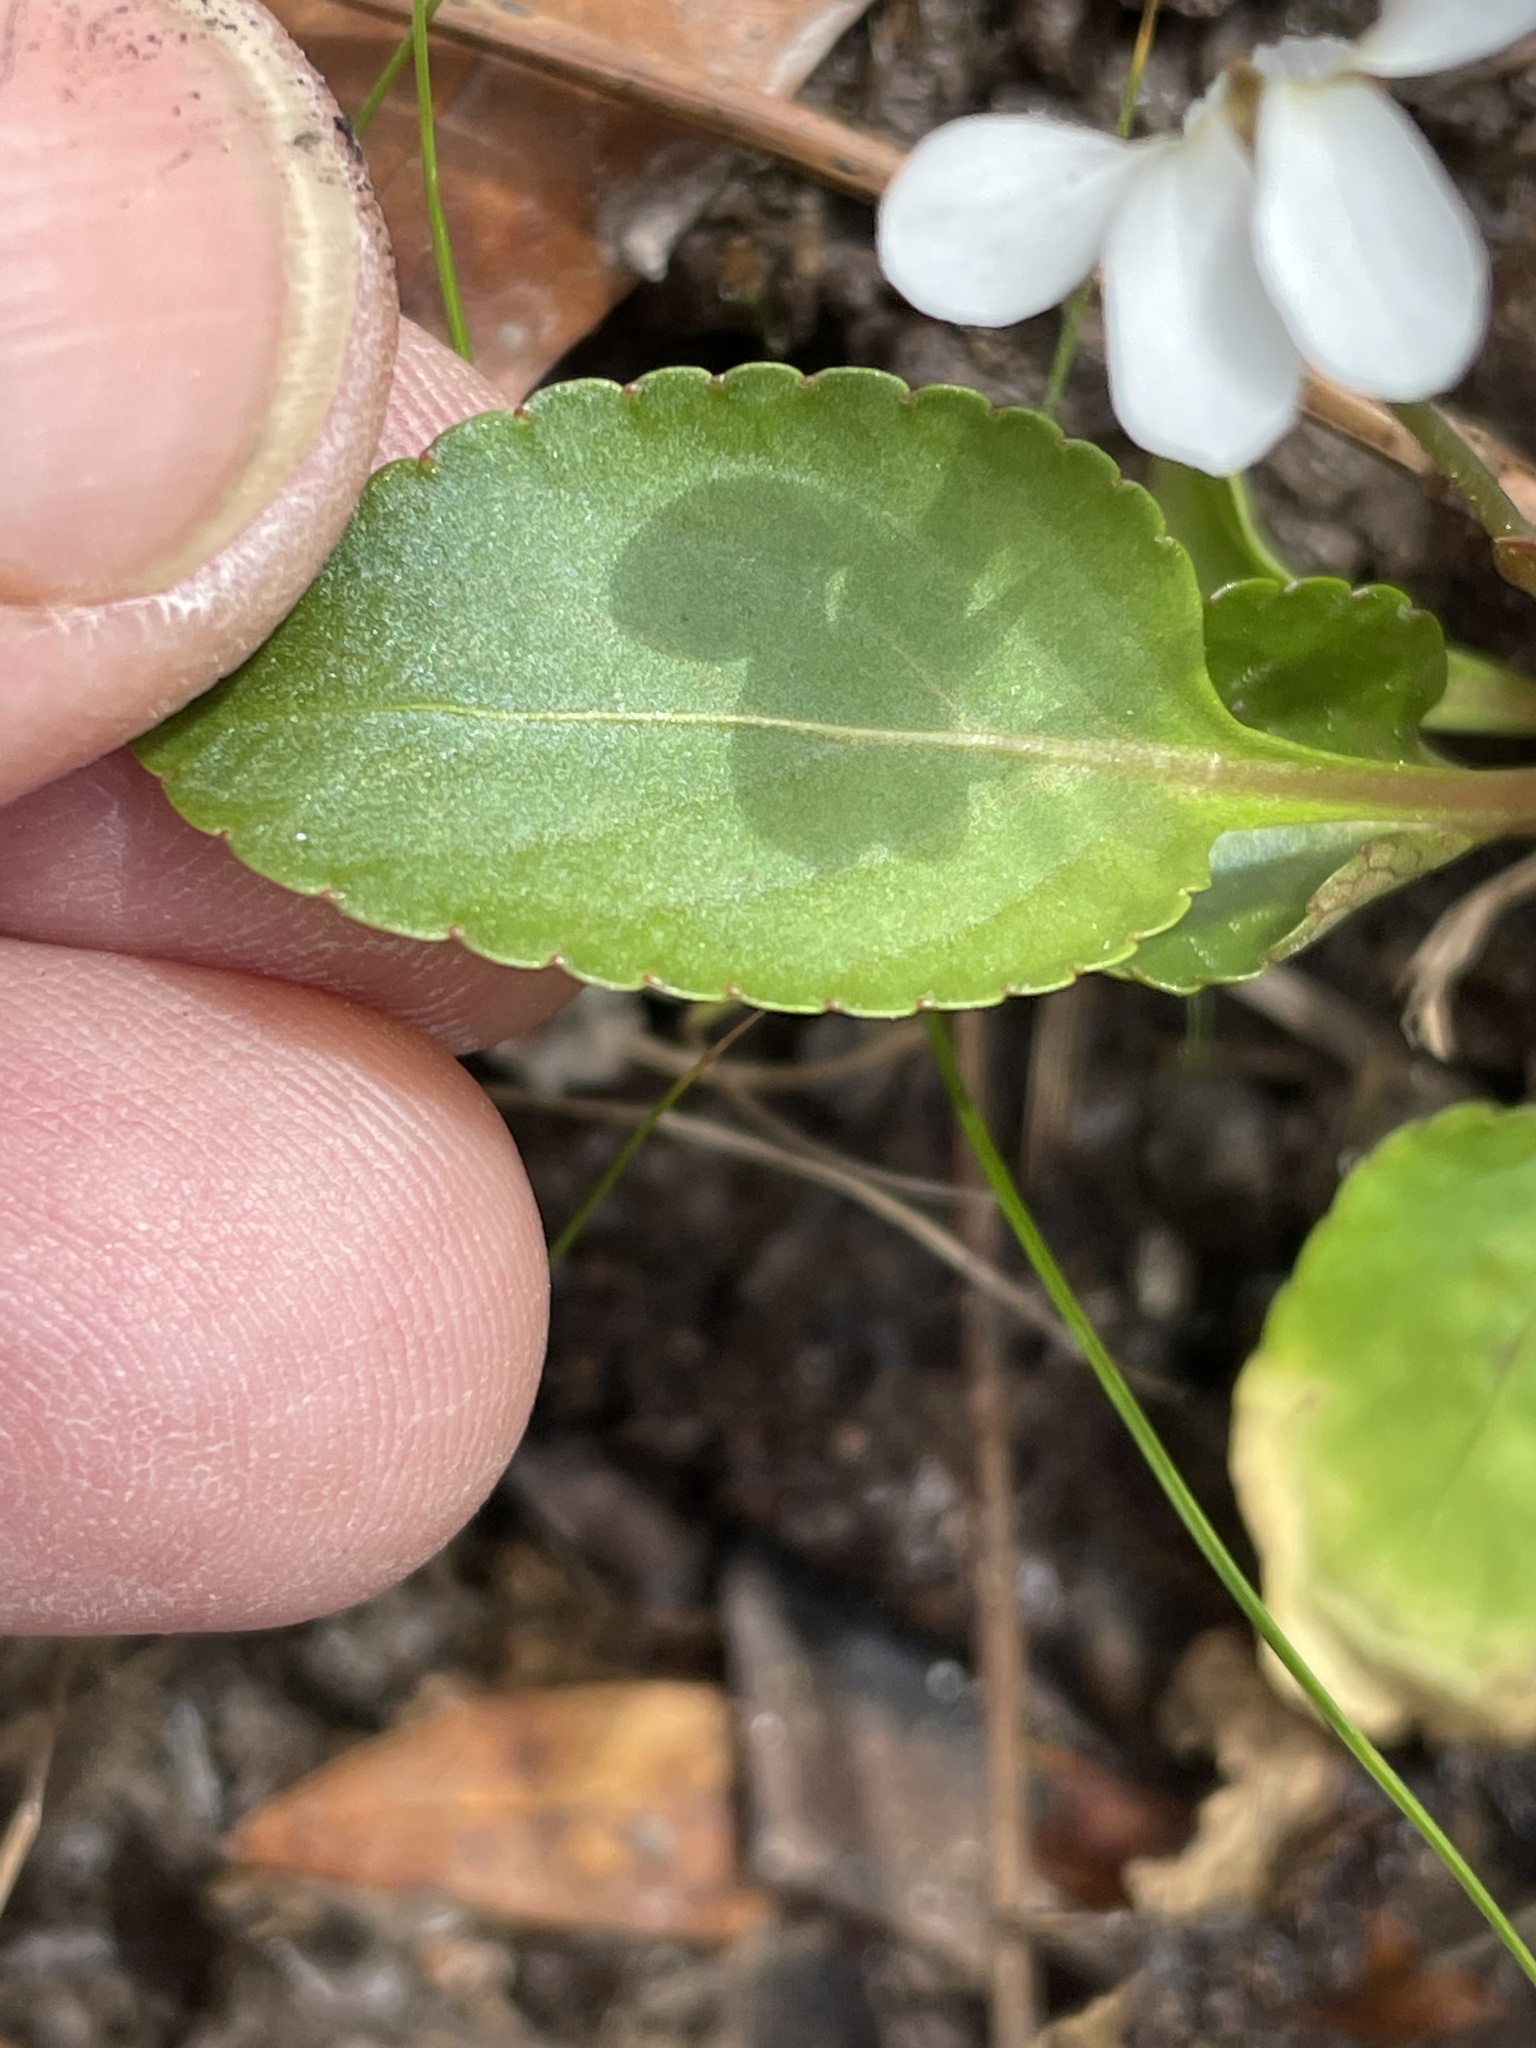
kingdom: Plantae
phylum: Tracheophyta
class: Magnoliopsida
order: Malpighiales
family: Violaceae
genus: Viola
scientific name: Viola primulifolia
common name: Primrose-leaf violet
